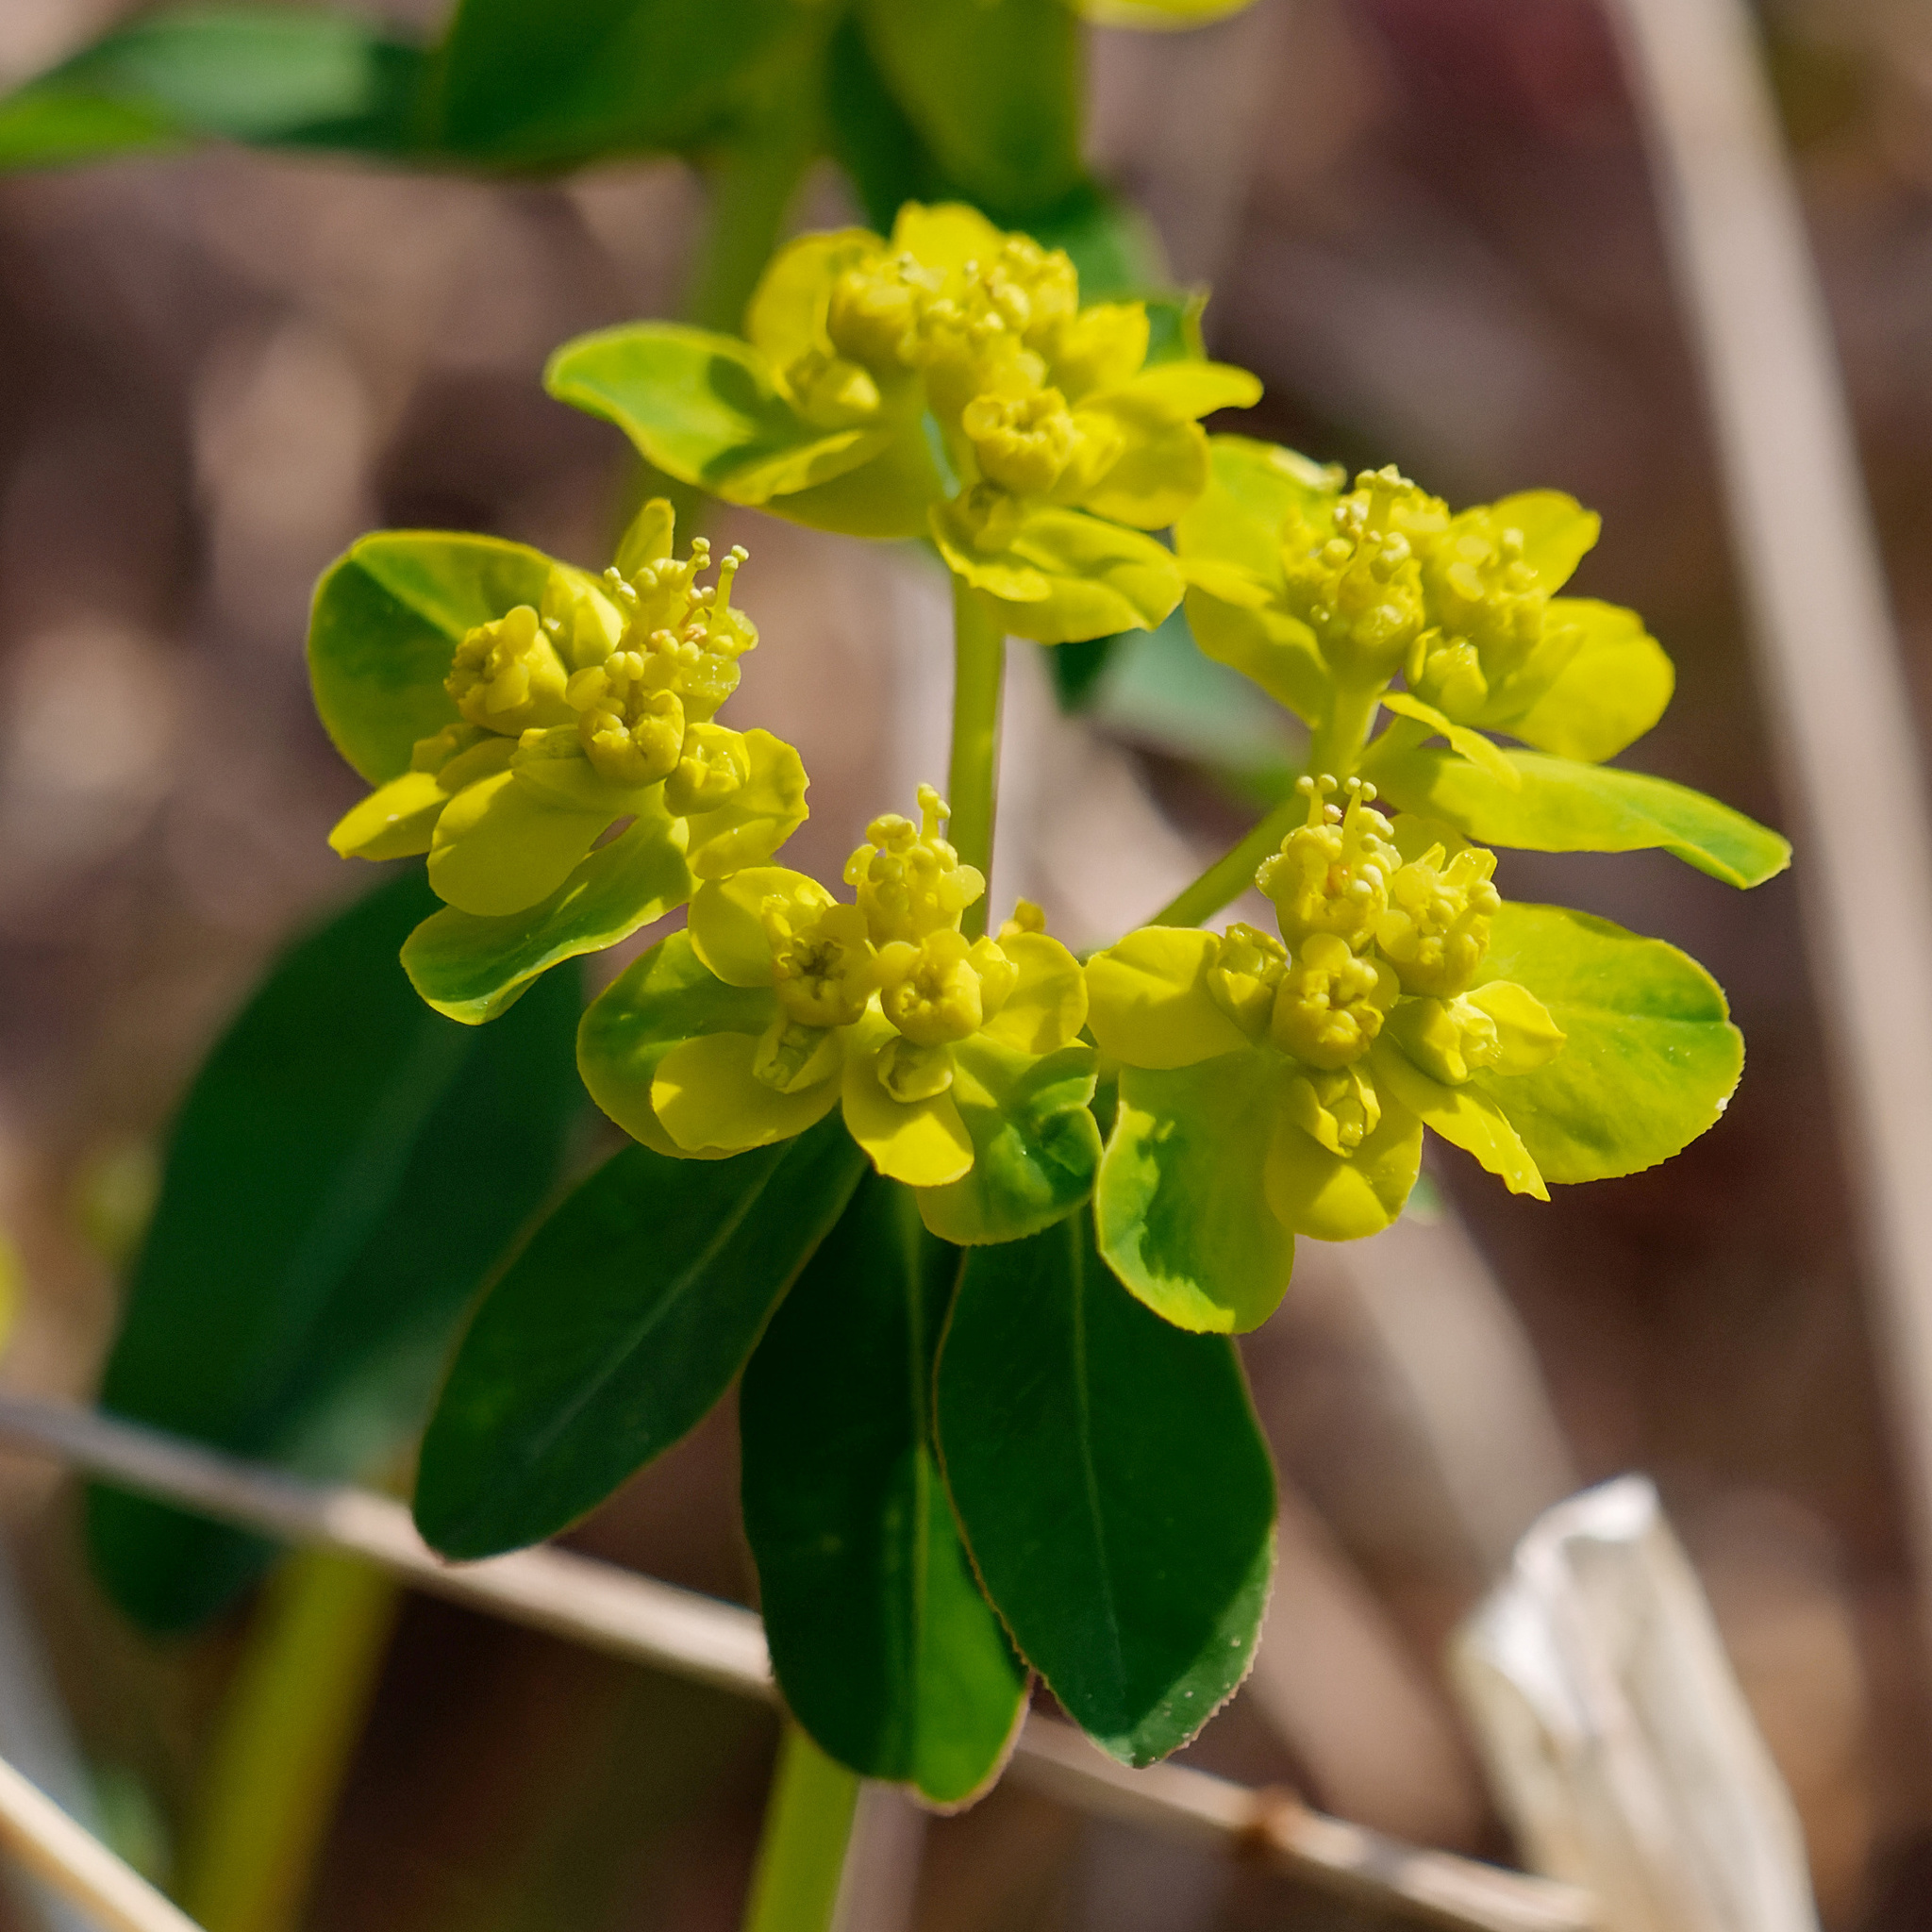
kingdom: Plantae
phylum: Tracheophyta
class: Magnoliopsida
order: Malpighiales
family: Euphorbiaceae
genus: Euphorbia
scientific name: Euphorbia verrucosa
